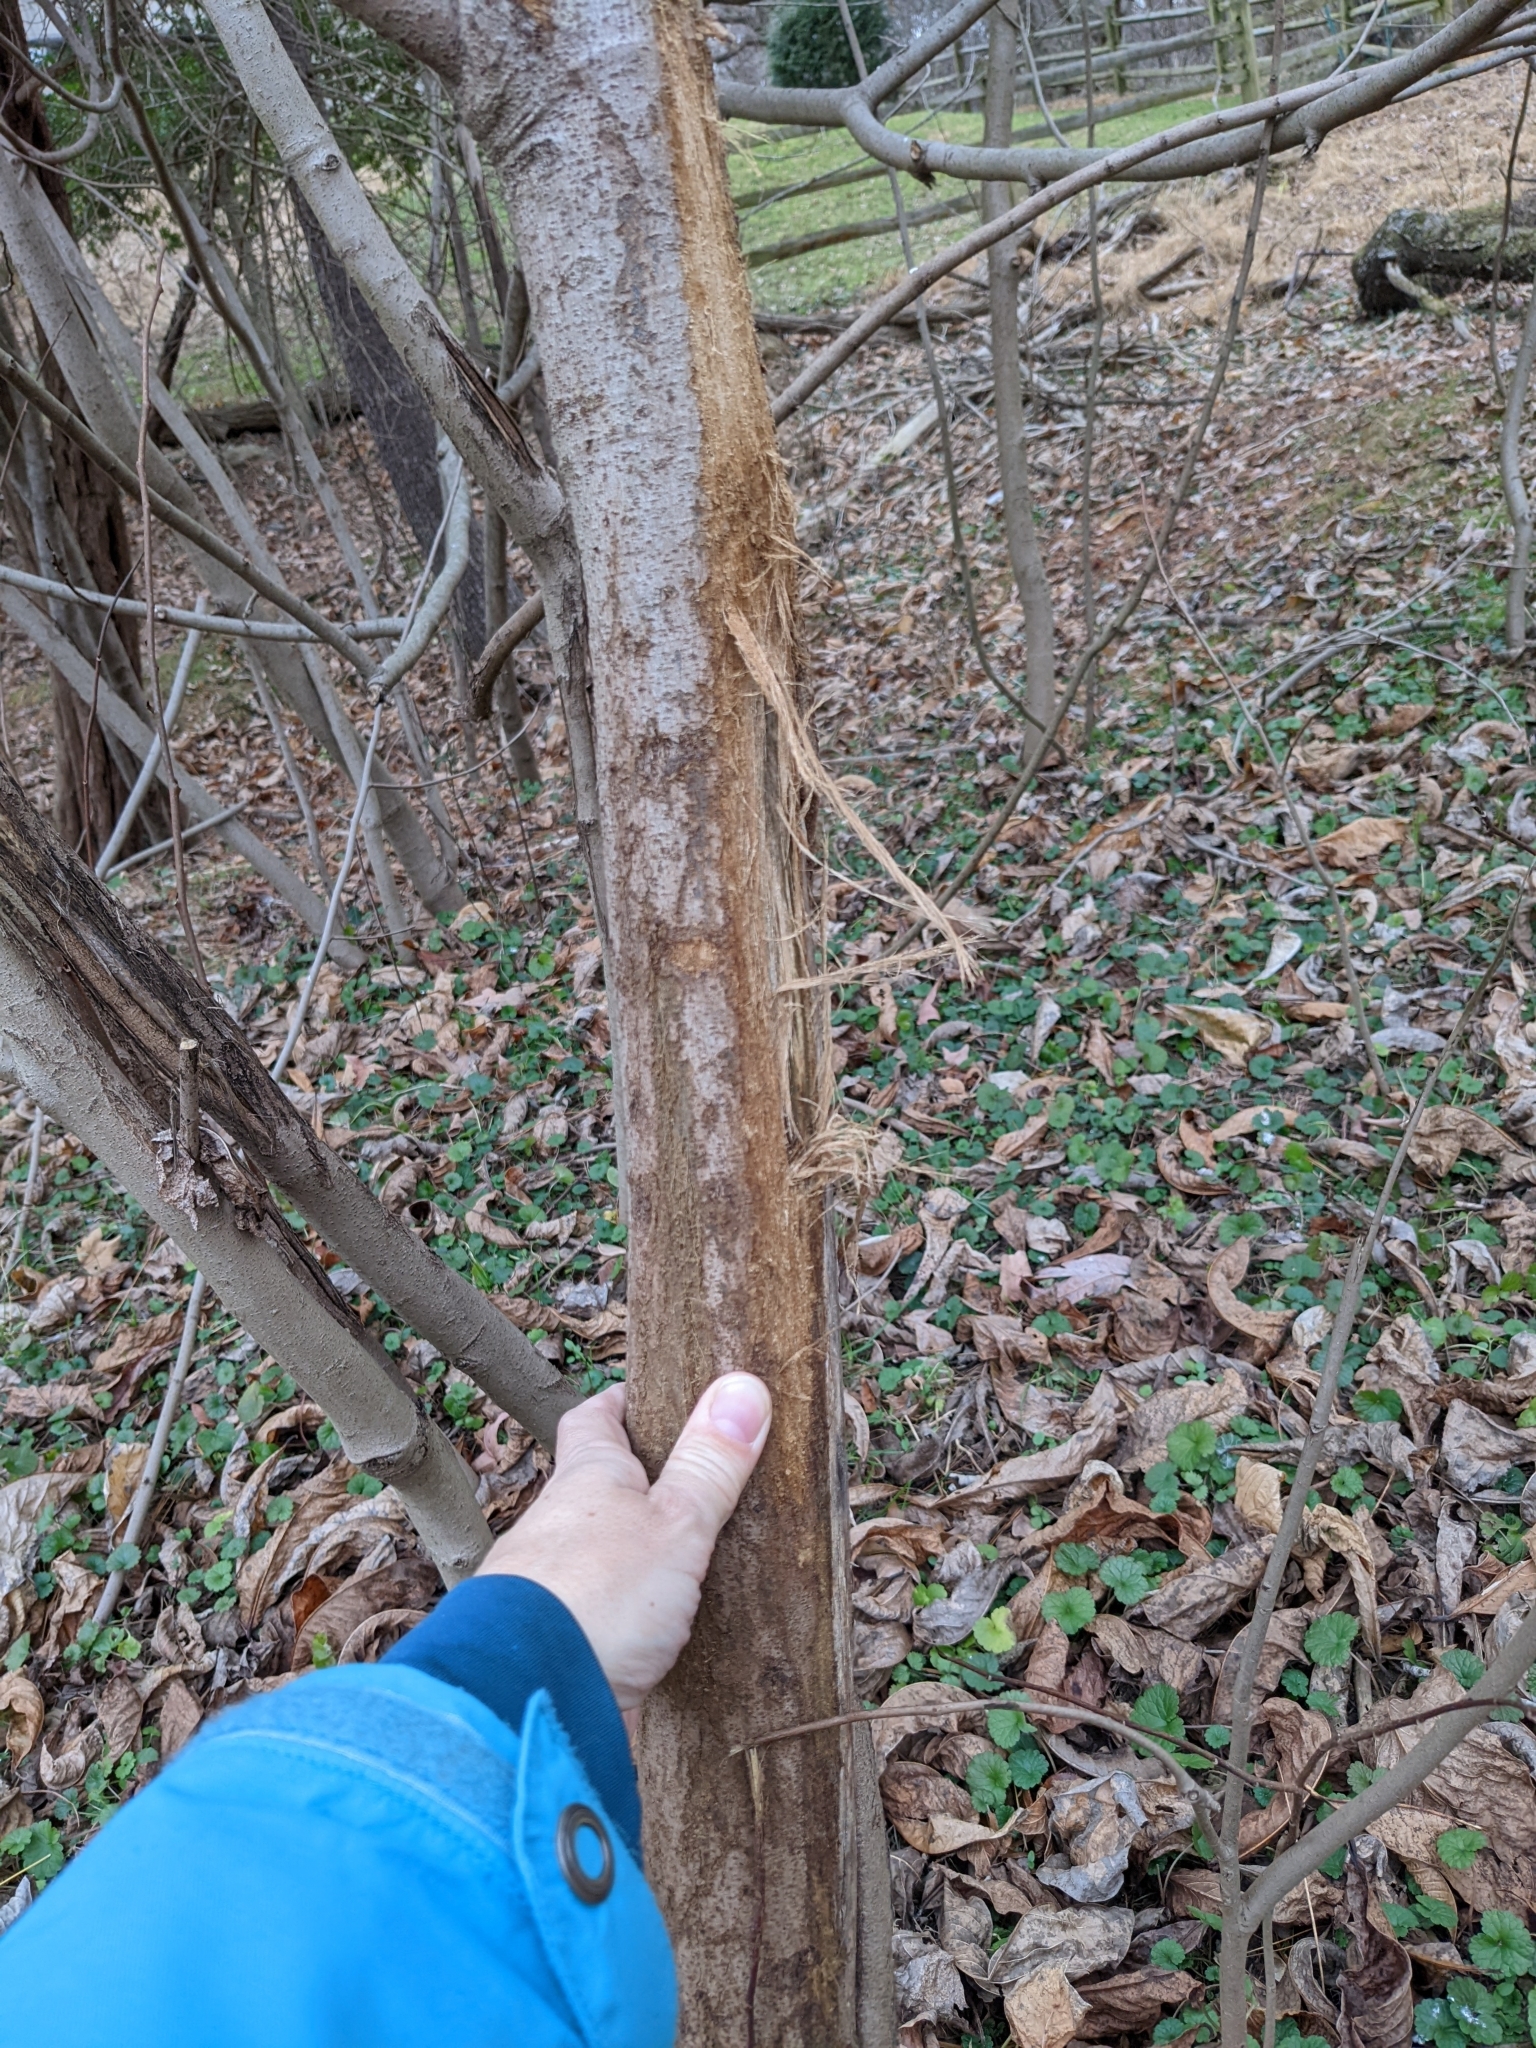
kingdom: Animalia
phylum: Chordata
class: Mammalia
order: Artiodactyla
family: Cervidae
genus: Odocoileus
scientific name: Odocoileus virginianus
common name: White-tailed deer
